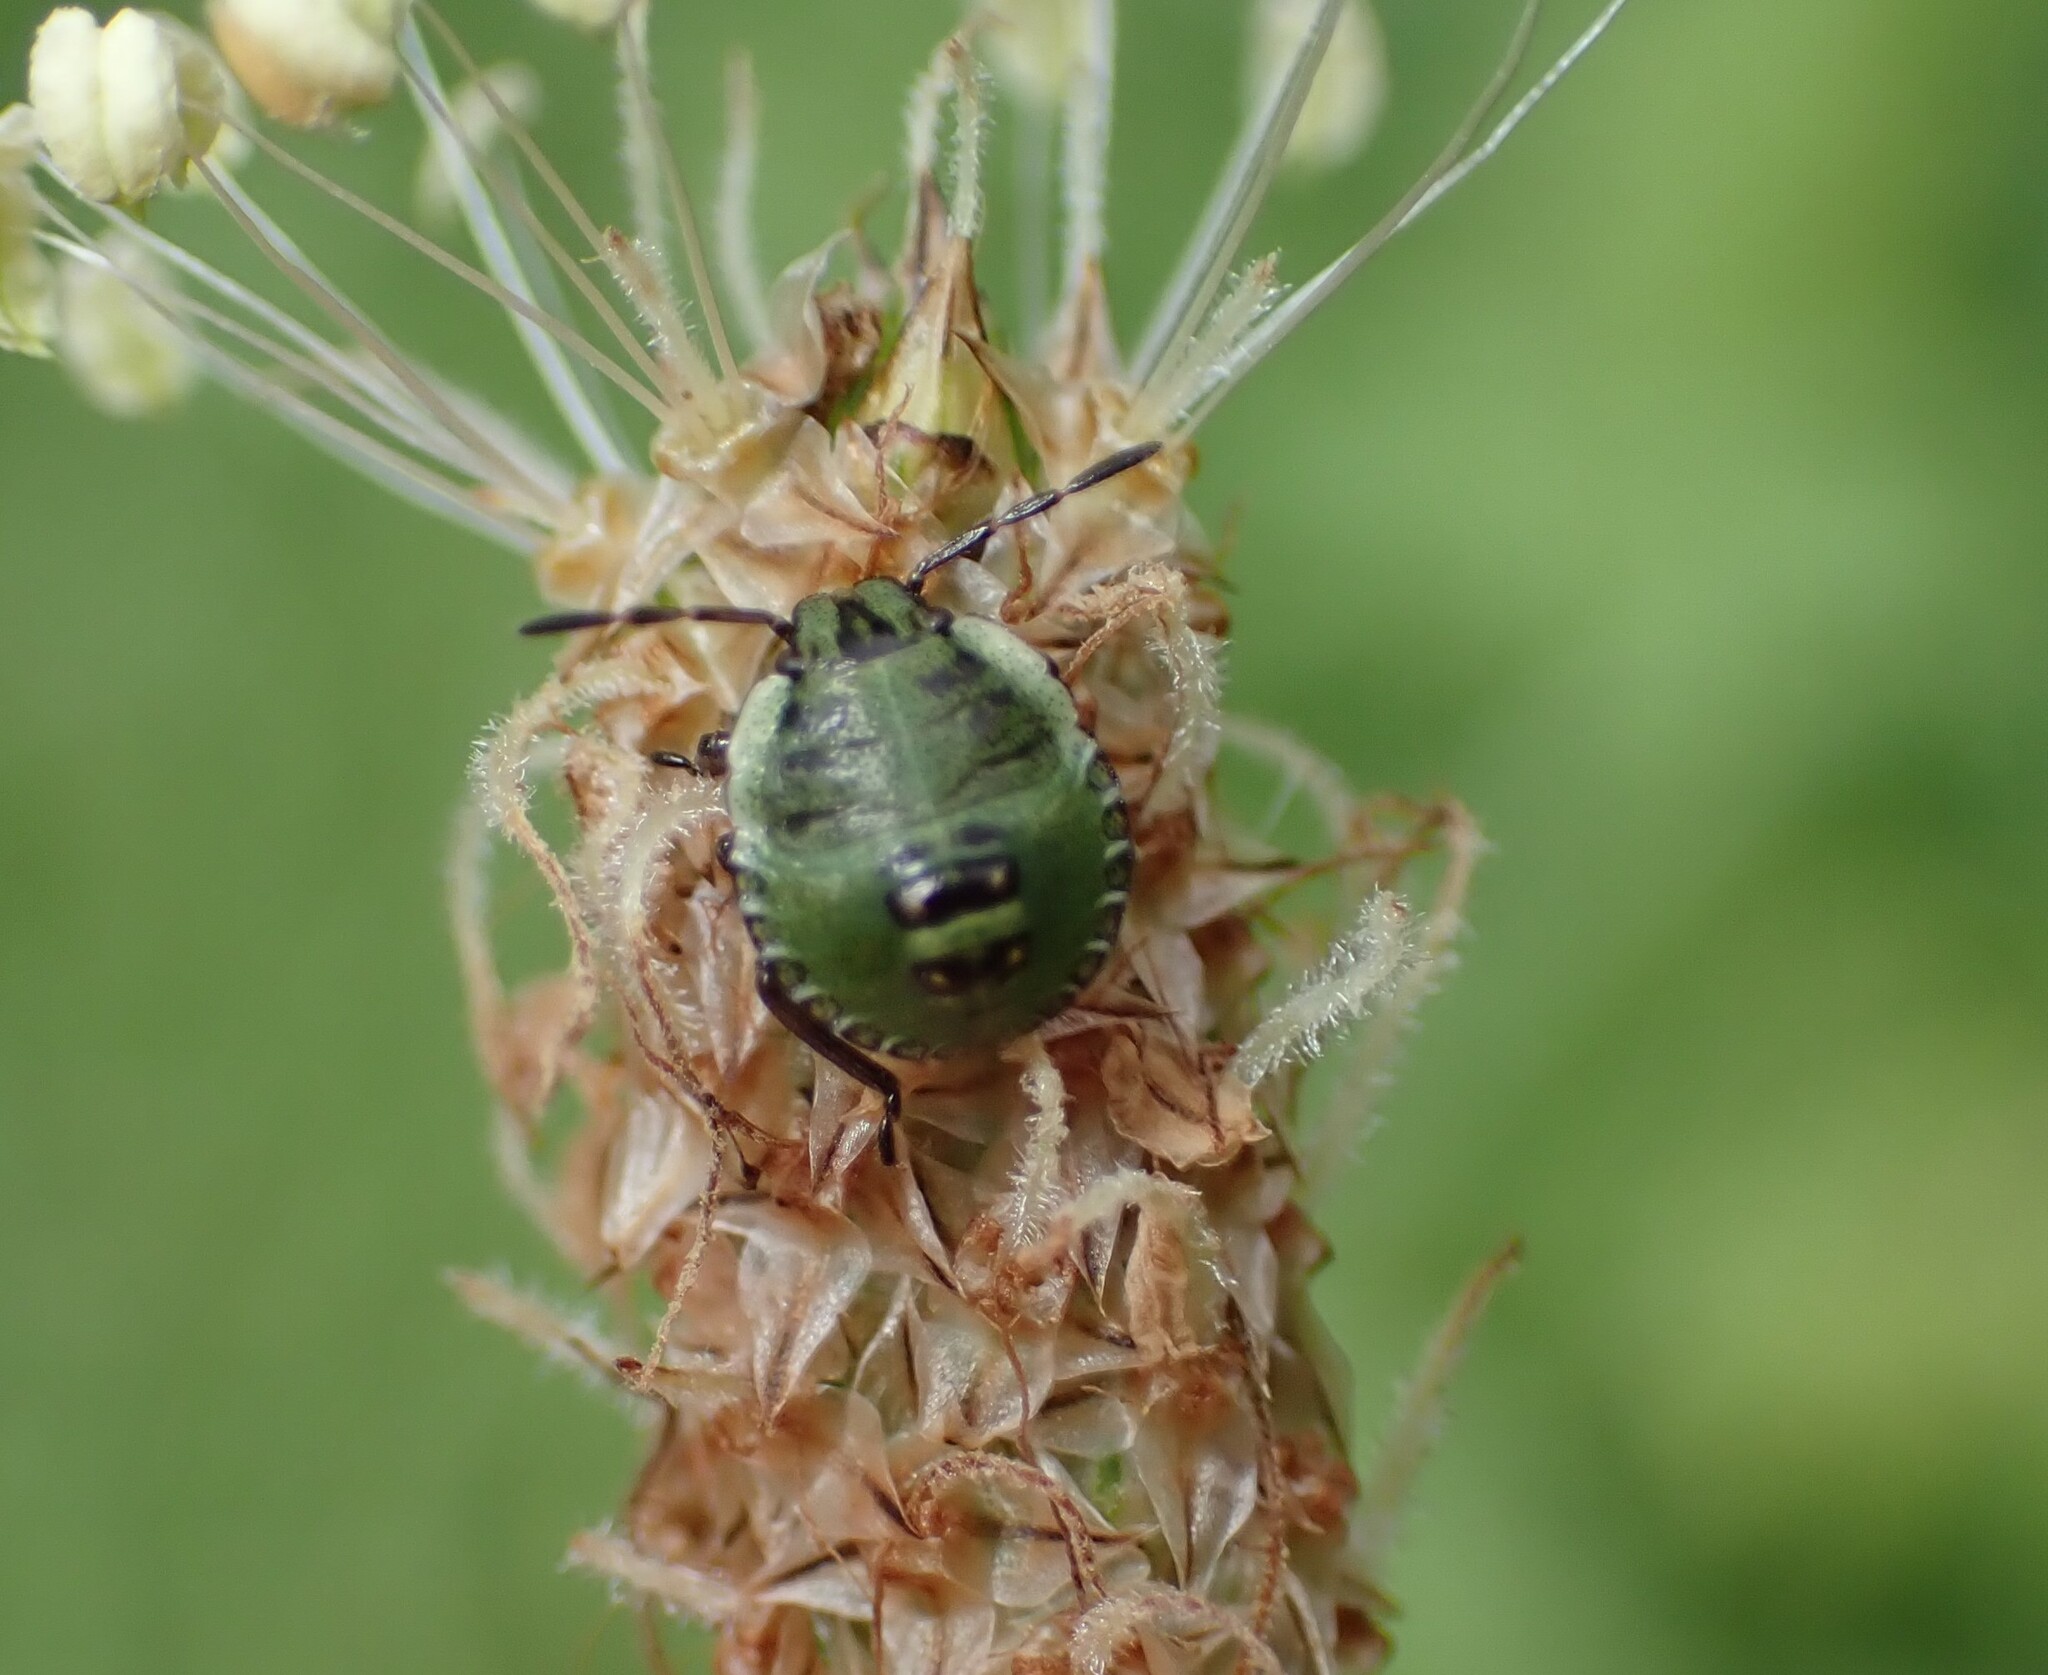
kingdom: Animalia
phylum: Arthropoda
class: Insecta
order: Hemiptera
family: Pentatomidae
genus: Palomena
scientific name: Palomena prasina
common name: Green shieldbug
